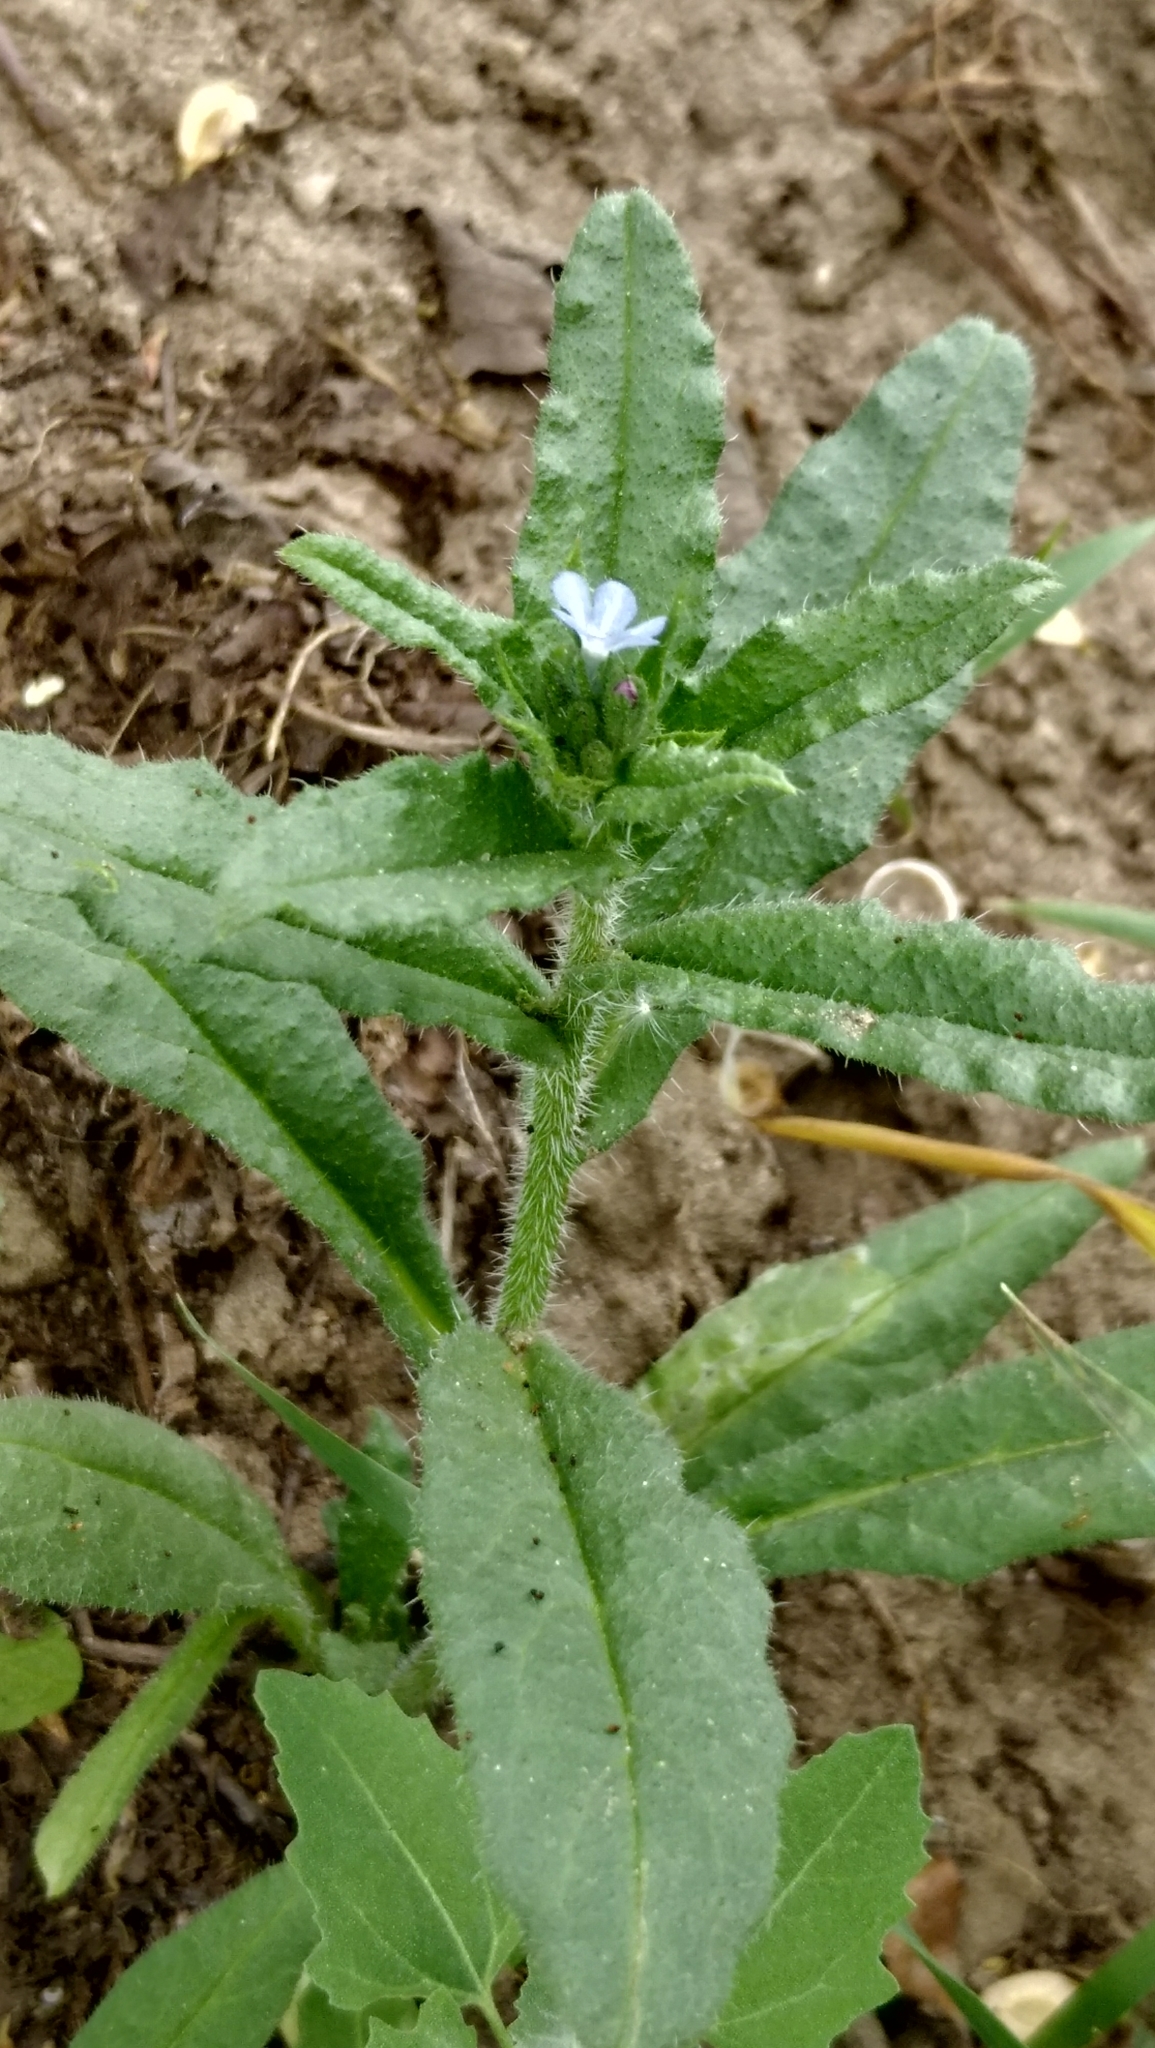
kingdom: Plantae
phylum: Tracheophyta
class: Magnoliopsida
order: Boraginales
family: Boraginaceae
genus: Lycopsis
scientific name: Lycopsis arvensis
